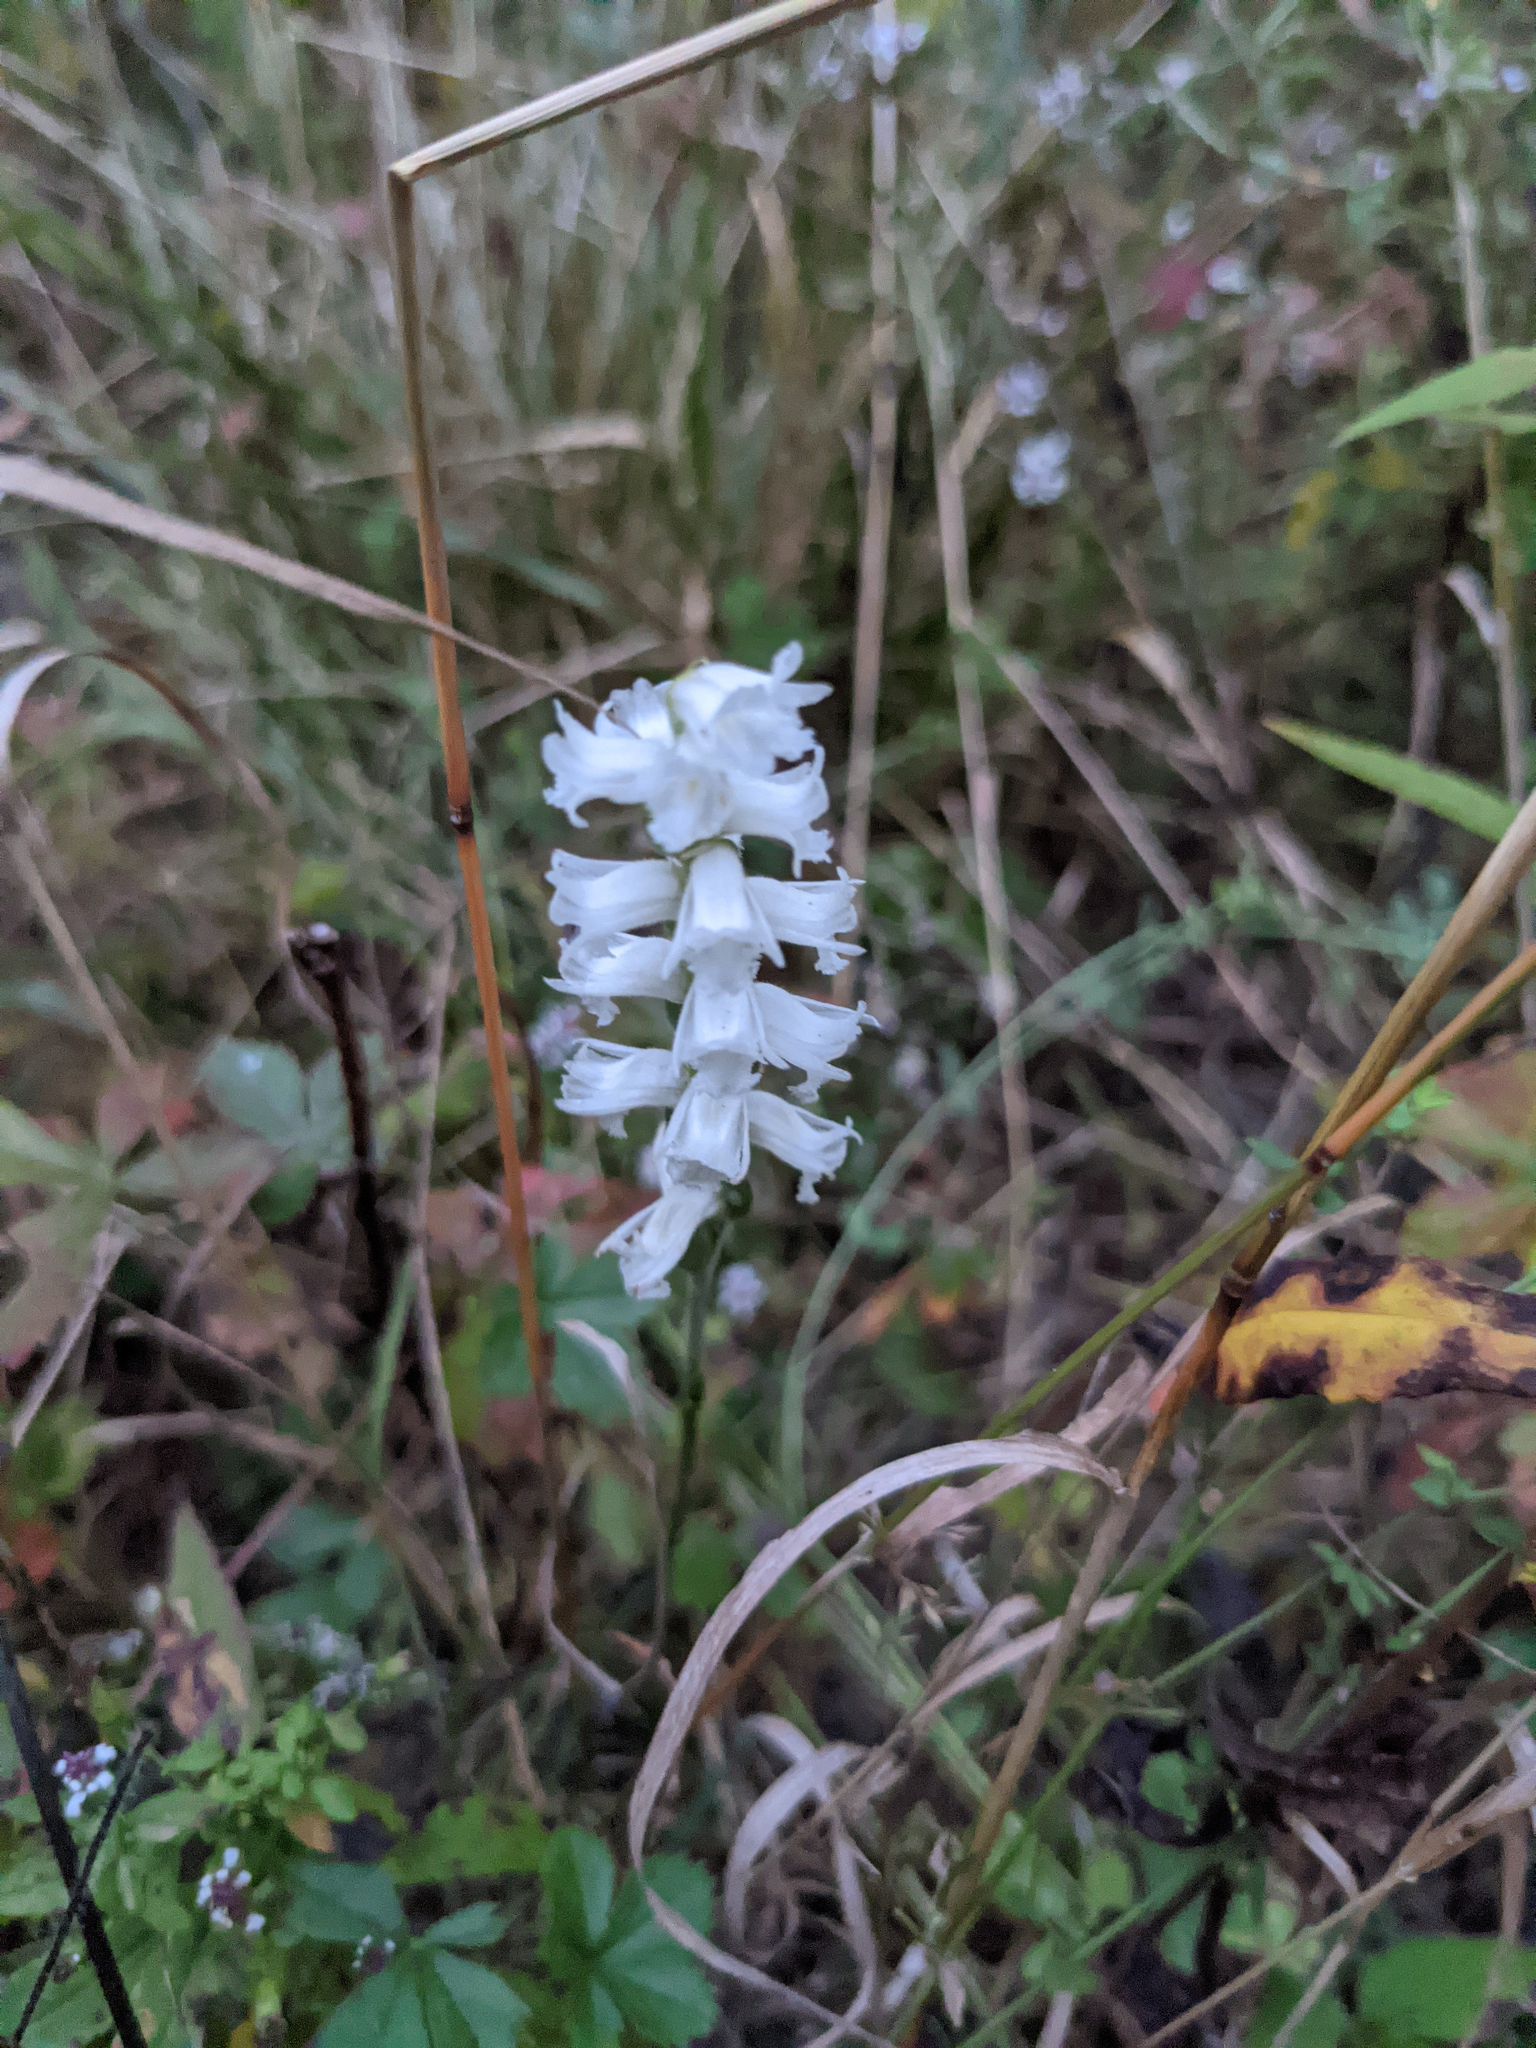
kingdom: Plantae
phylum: Tracheophyta
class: Liliopsida
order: Asparagales
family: Orchidaceae
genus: Spiranthes
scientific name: Spiranthes arcisepala
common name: Appalachian ladies'-tresses
